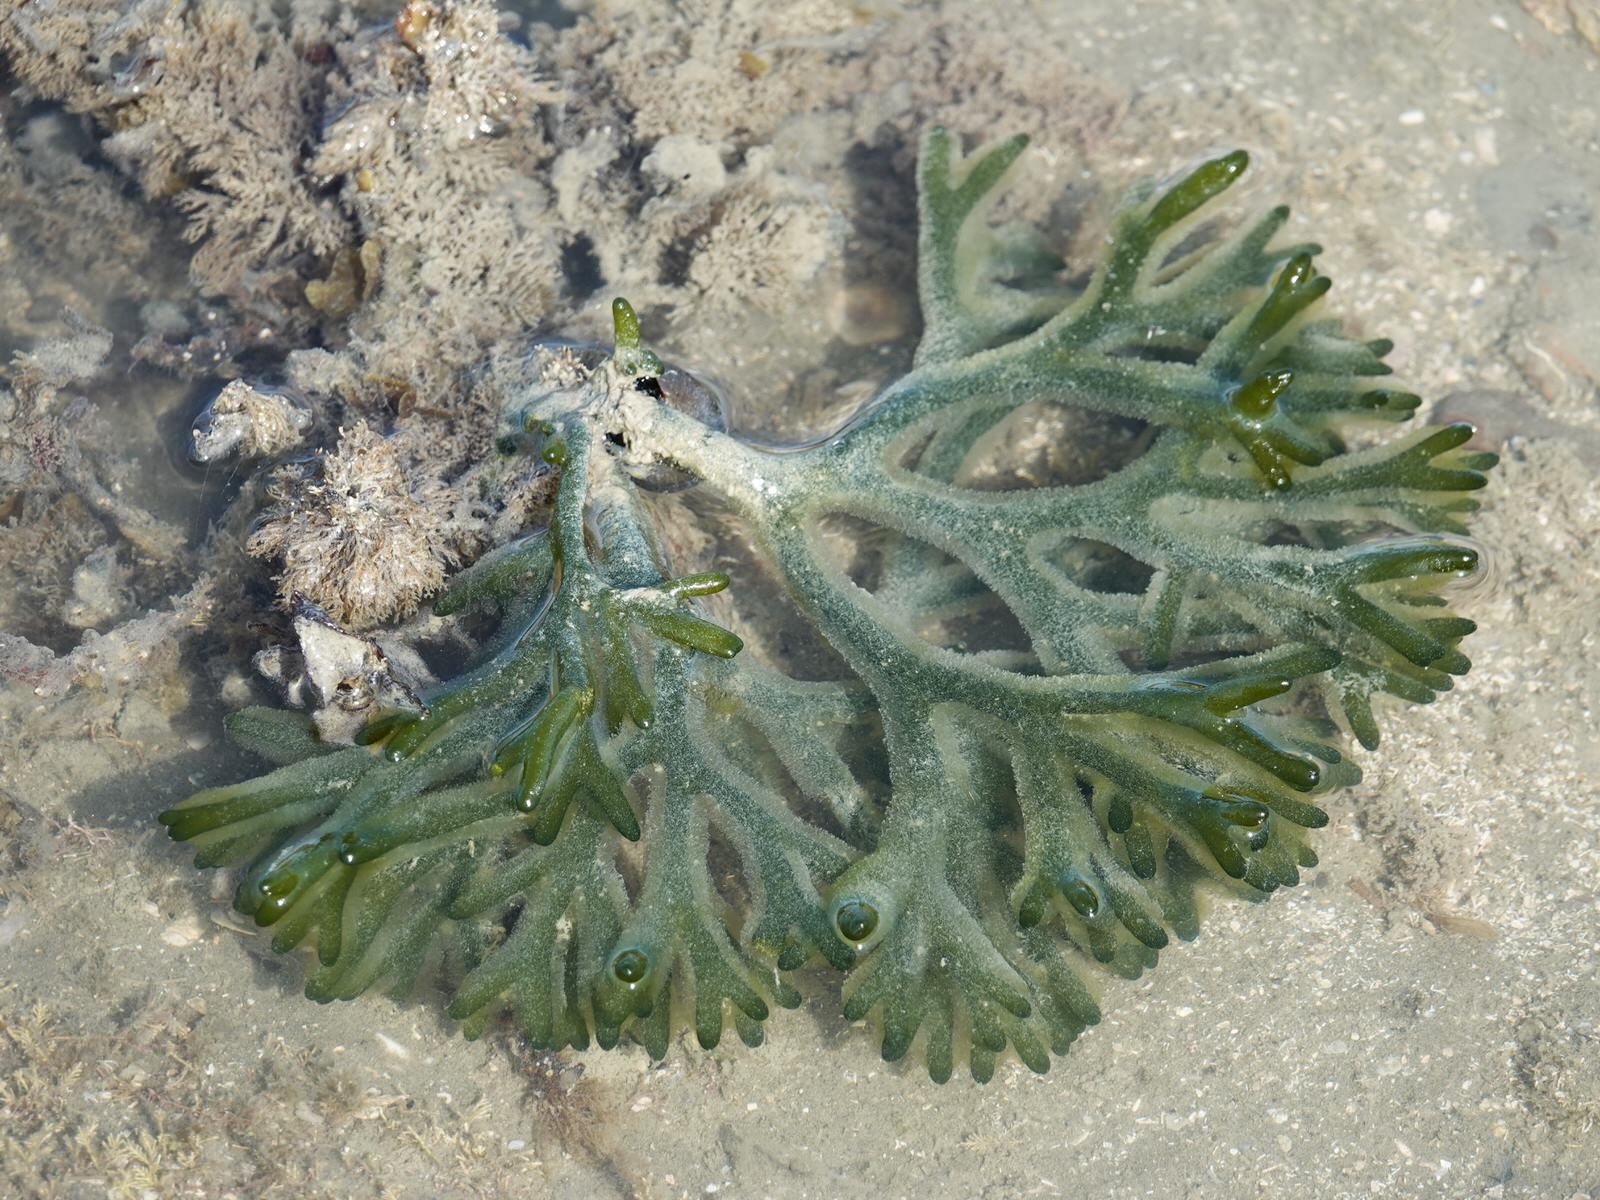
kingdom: Plantae
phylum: Chlorophyta
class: Ulvophyceae
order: Bryopsidales
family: Codiaceae
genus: Codium
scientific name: Codium fragile
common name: Dead man's fingers
